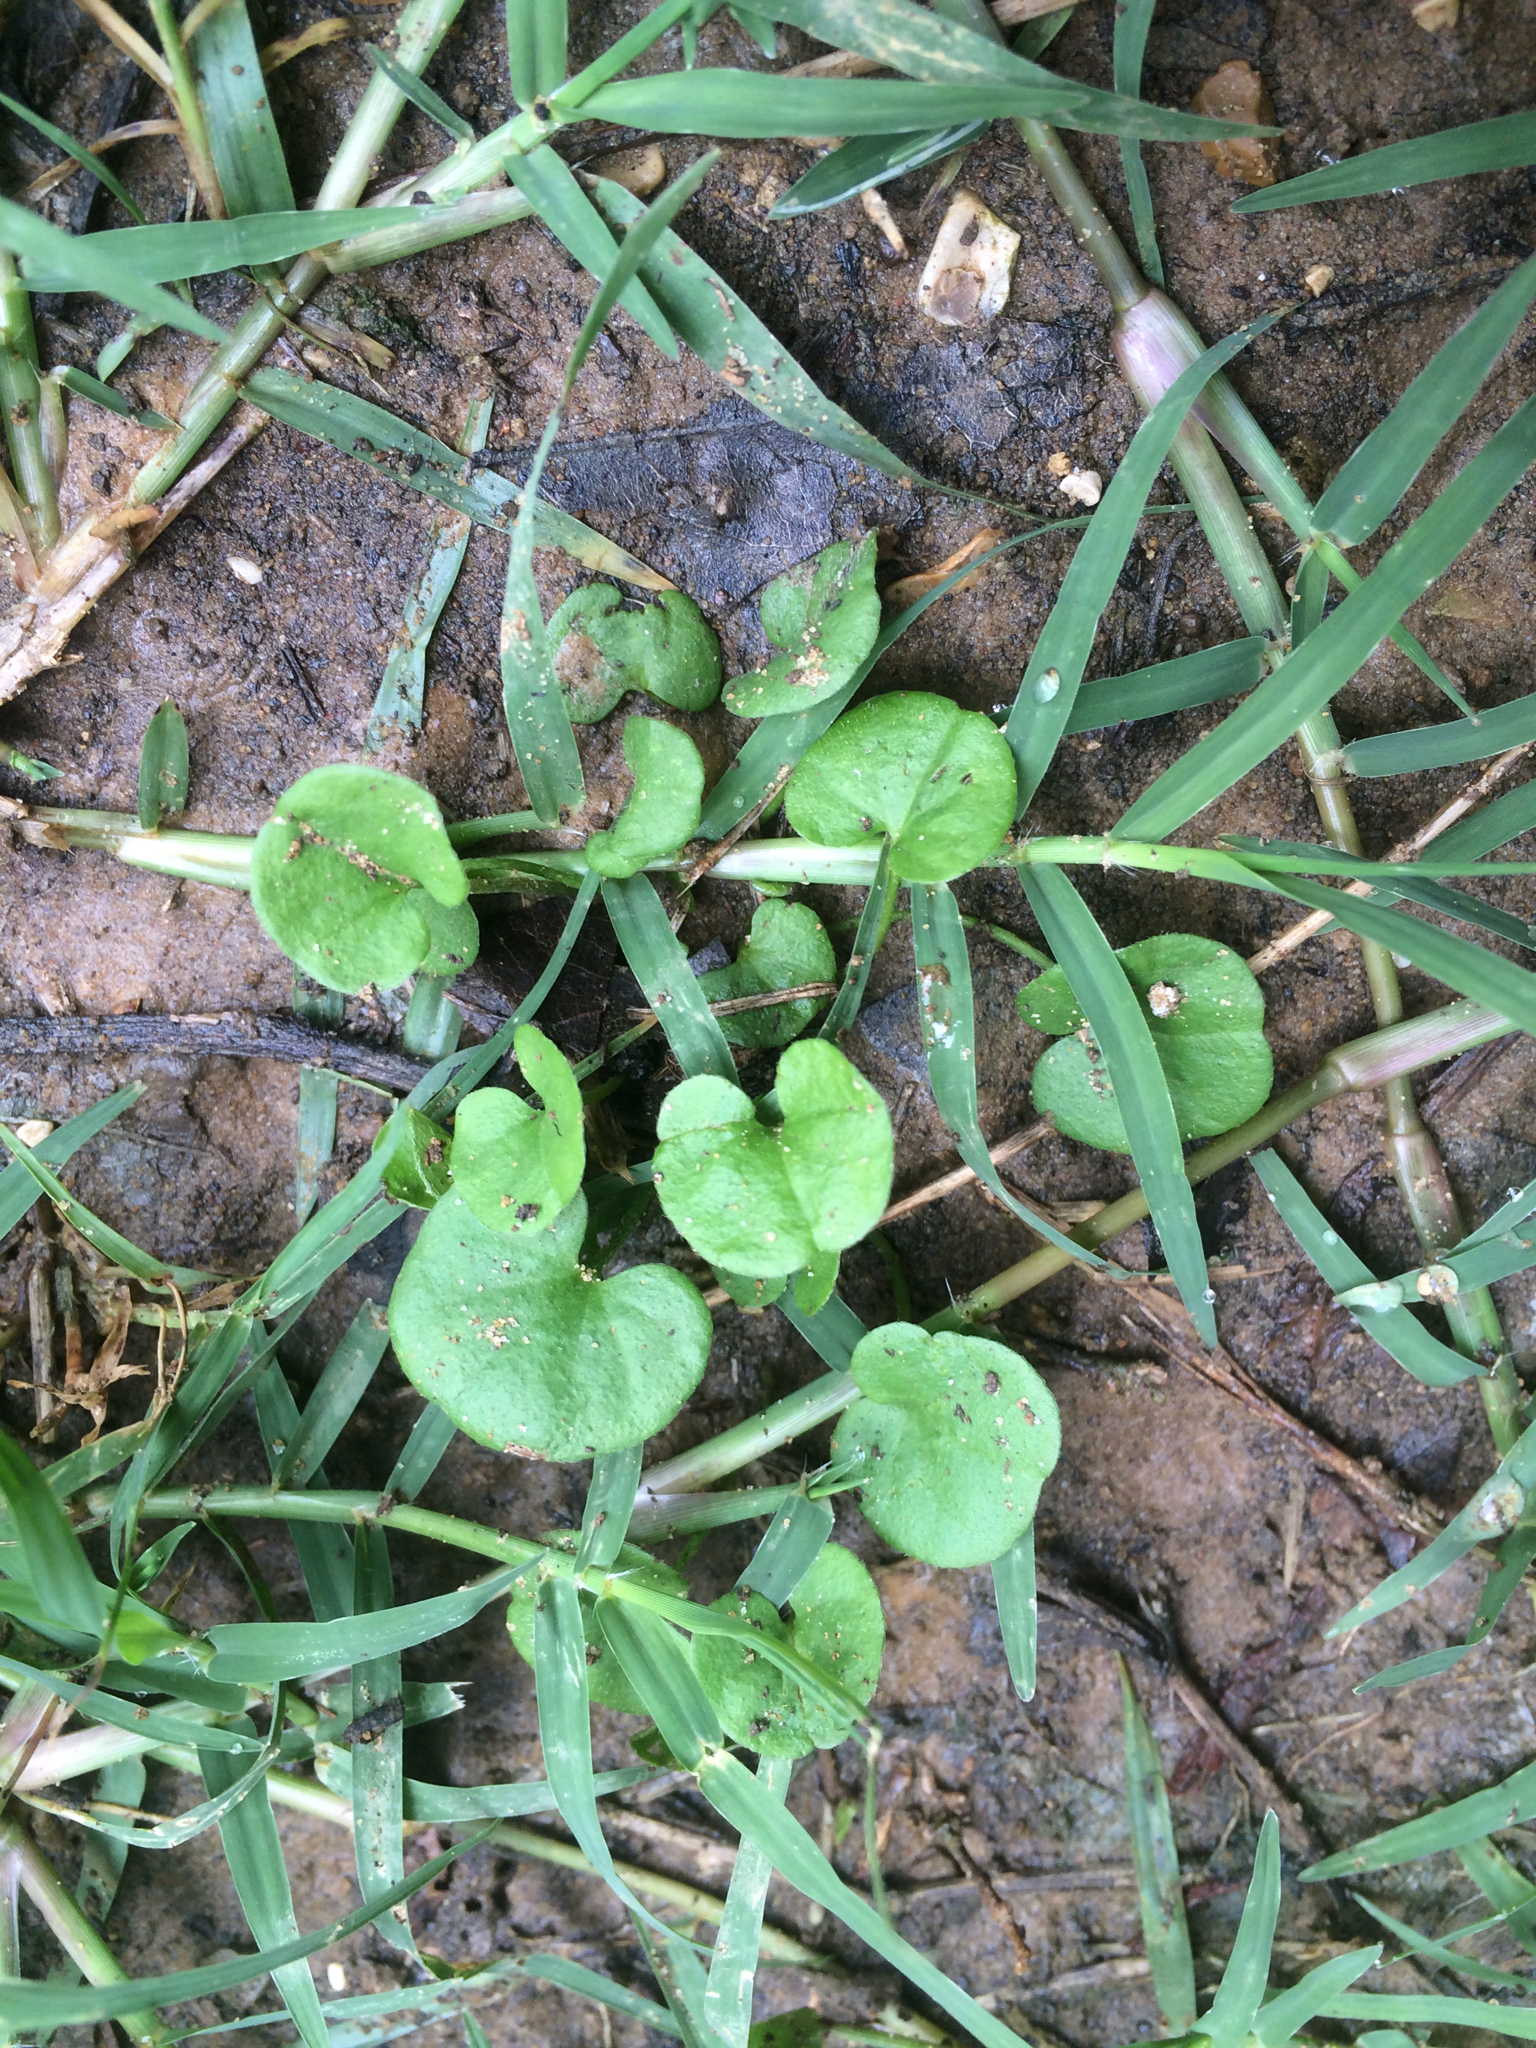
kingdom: Plantae
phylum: Tracheophyta
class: Magnoliopsida
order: Solanales
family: Convolvulaceae
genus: Dichondra
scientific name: Dichondra carolinensis
